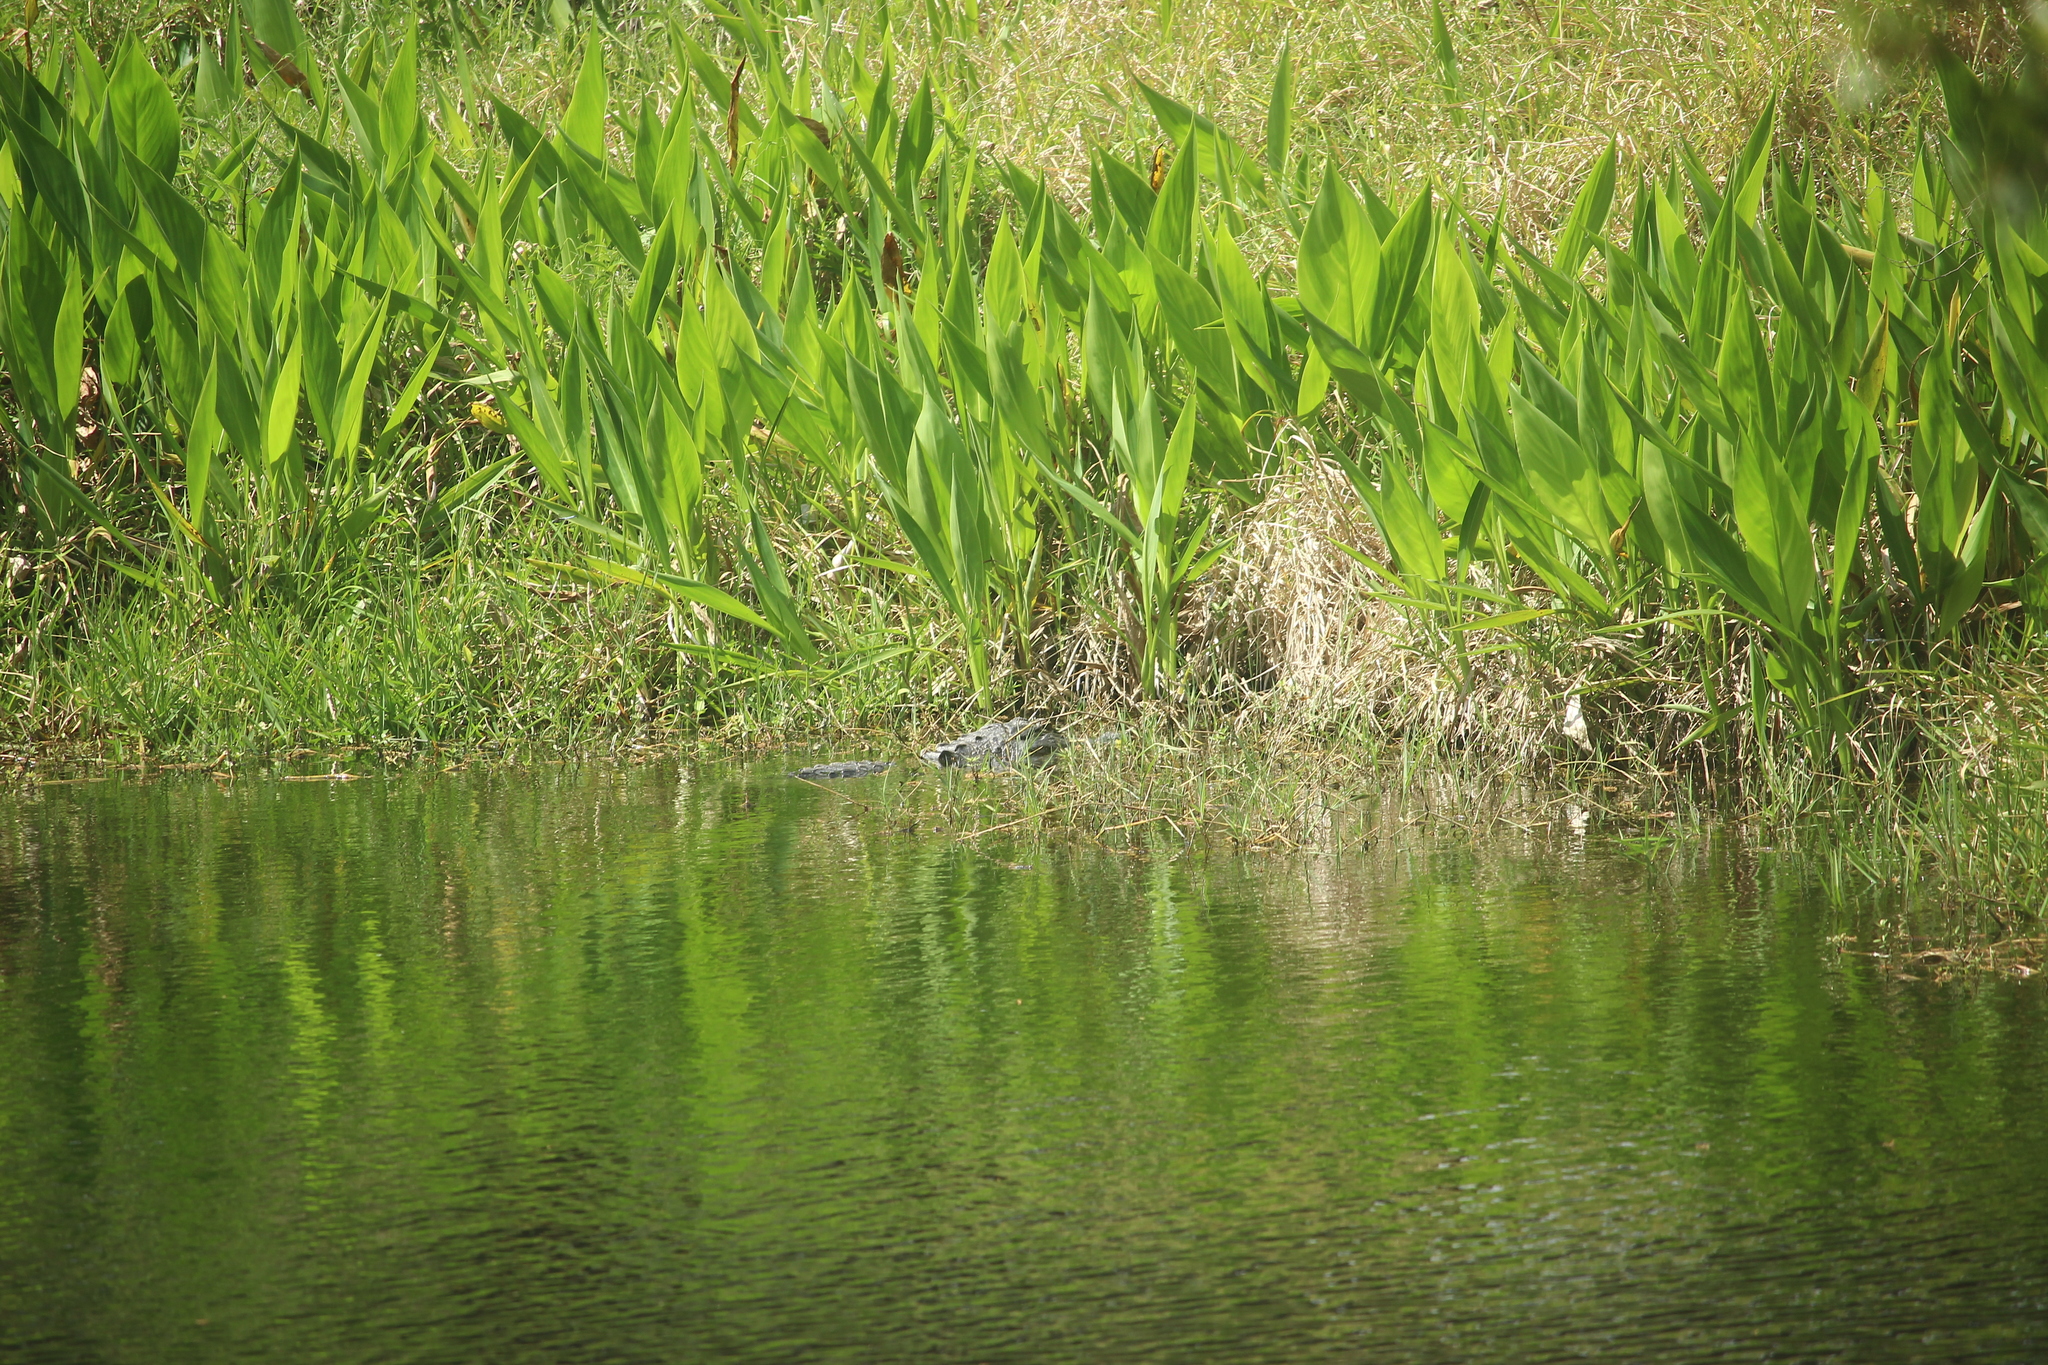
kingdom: Animalia
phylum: Chordata
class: Crocodylia
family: Alligatoridae
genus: Alligator
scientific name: Alligator mississippiensis
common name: American alligator
